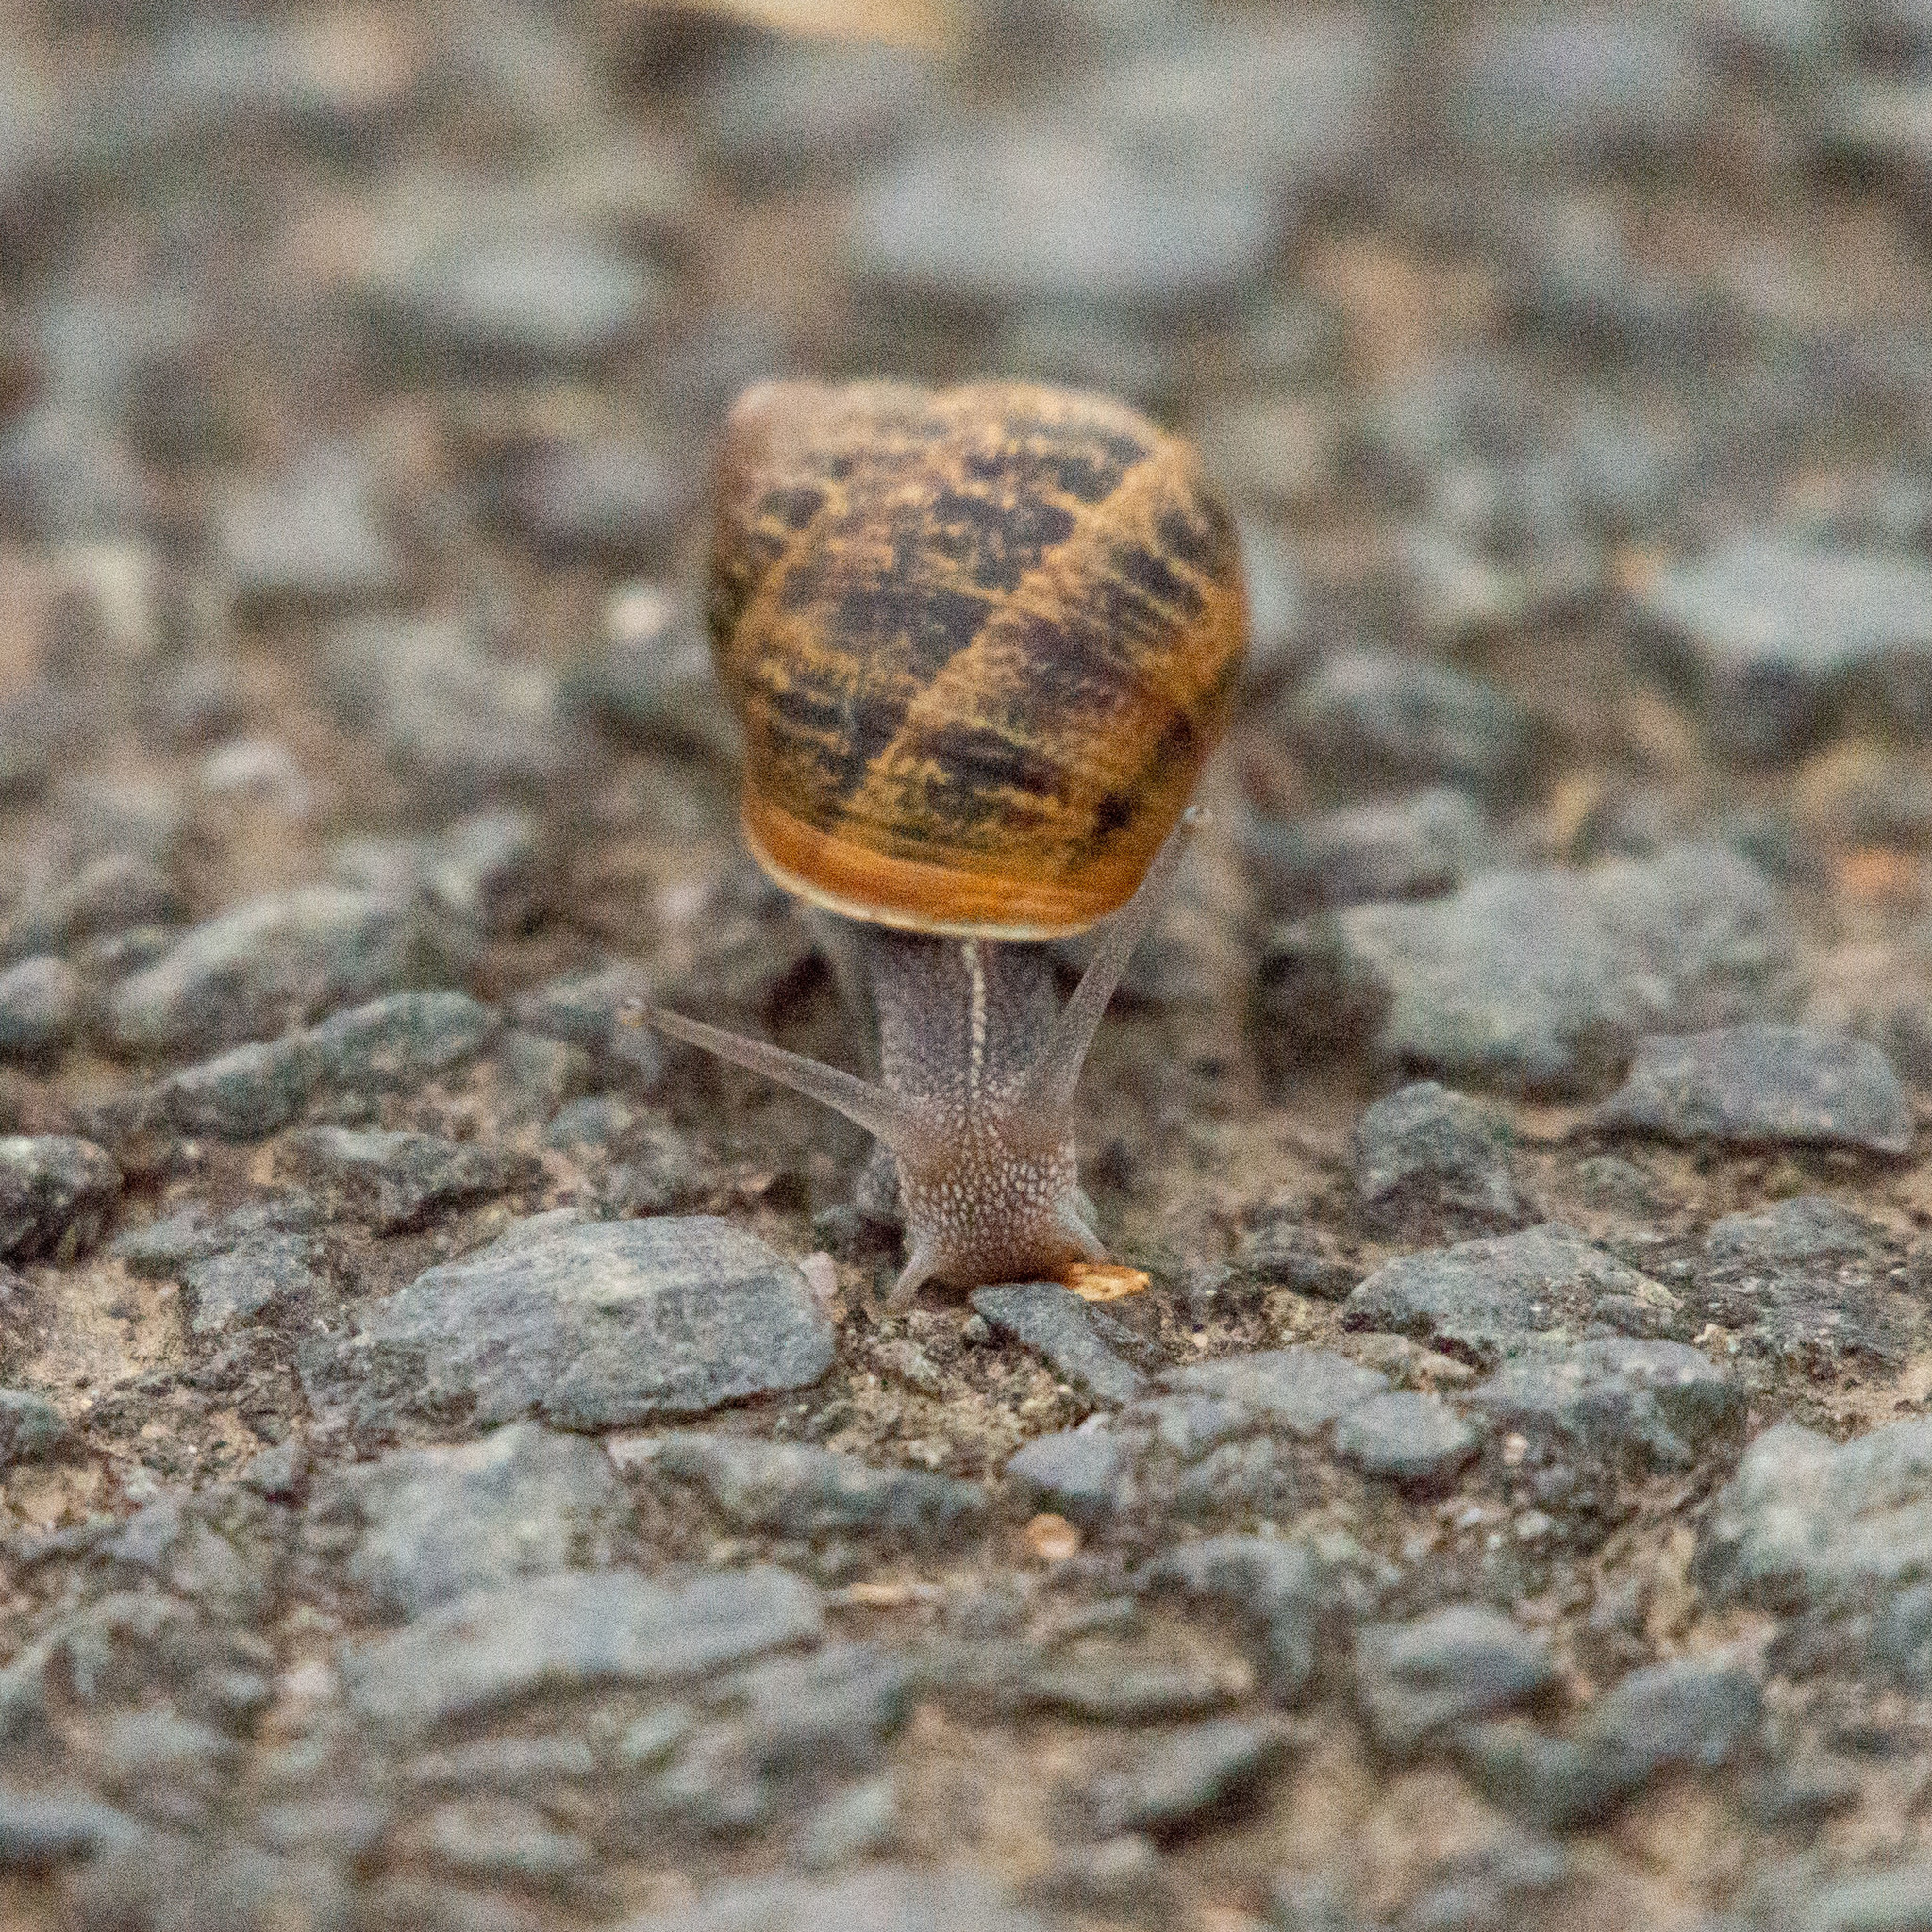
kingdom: Animalia
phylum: Mollusca
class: Gastropoda
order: Stylommatophora
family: Helicidae
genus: Cornu
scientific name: Cornu aspersum
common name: Brown garden snail
